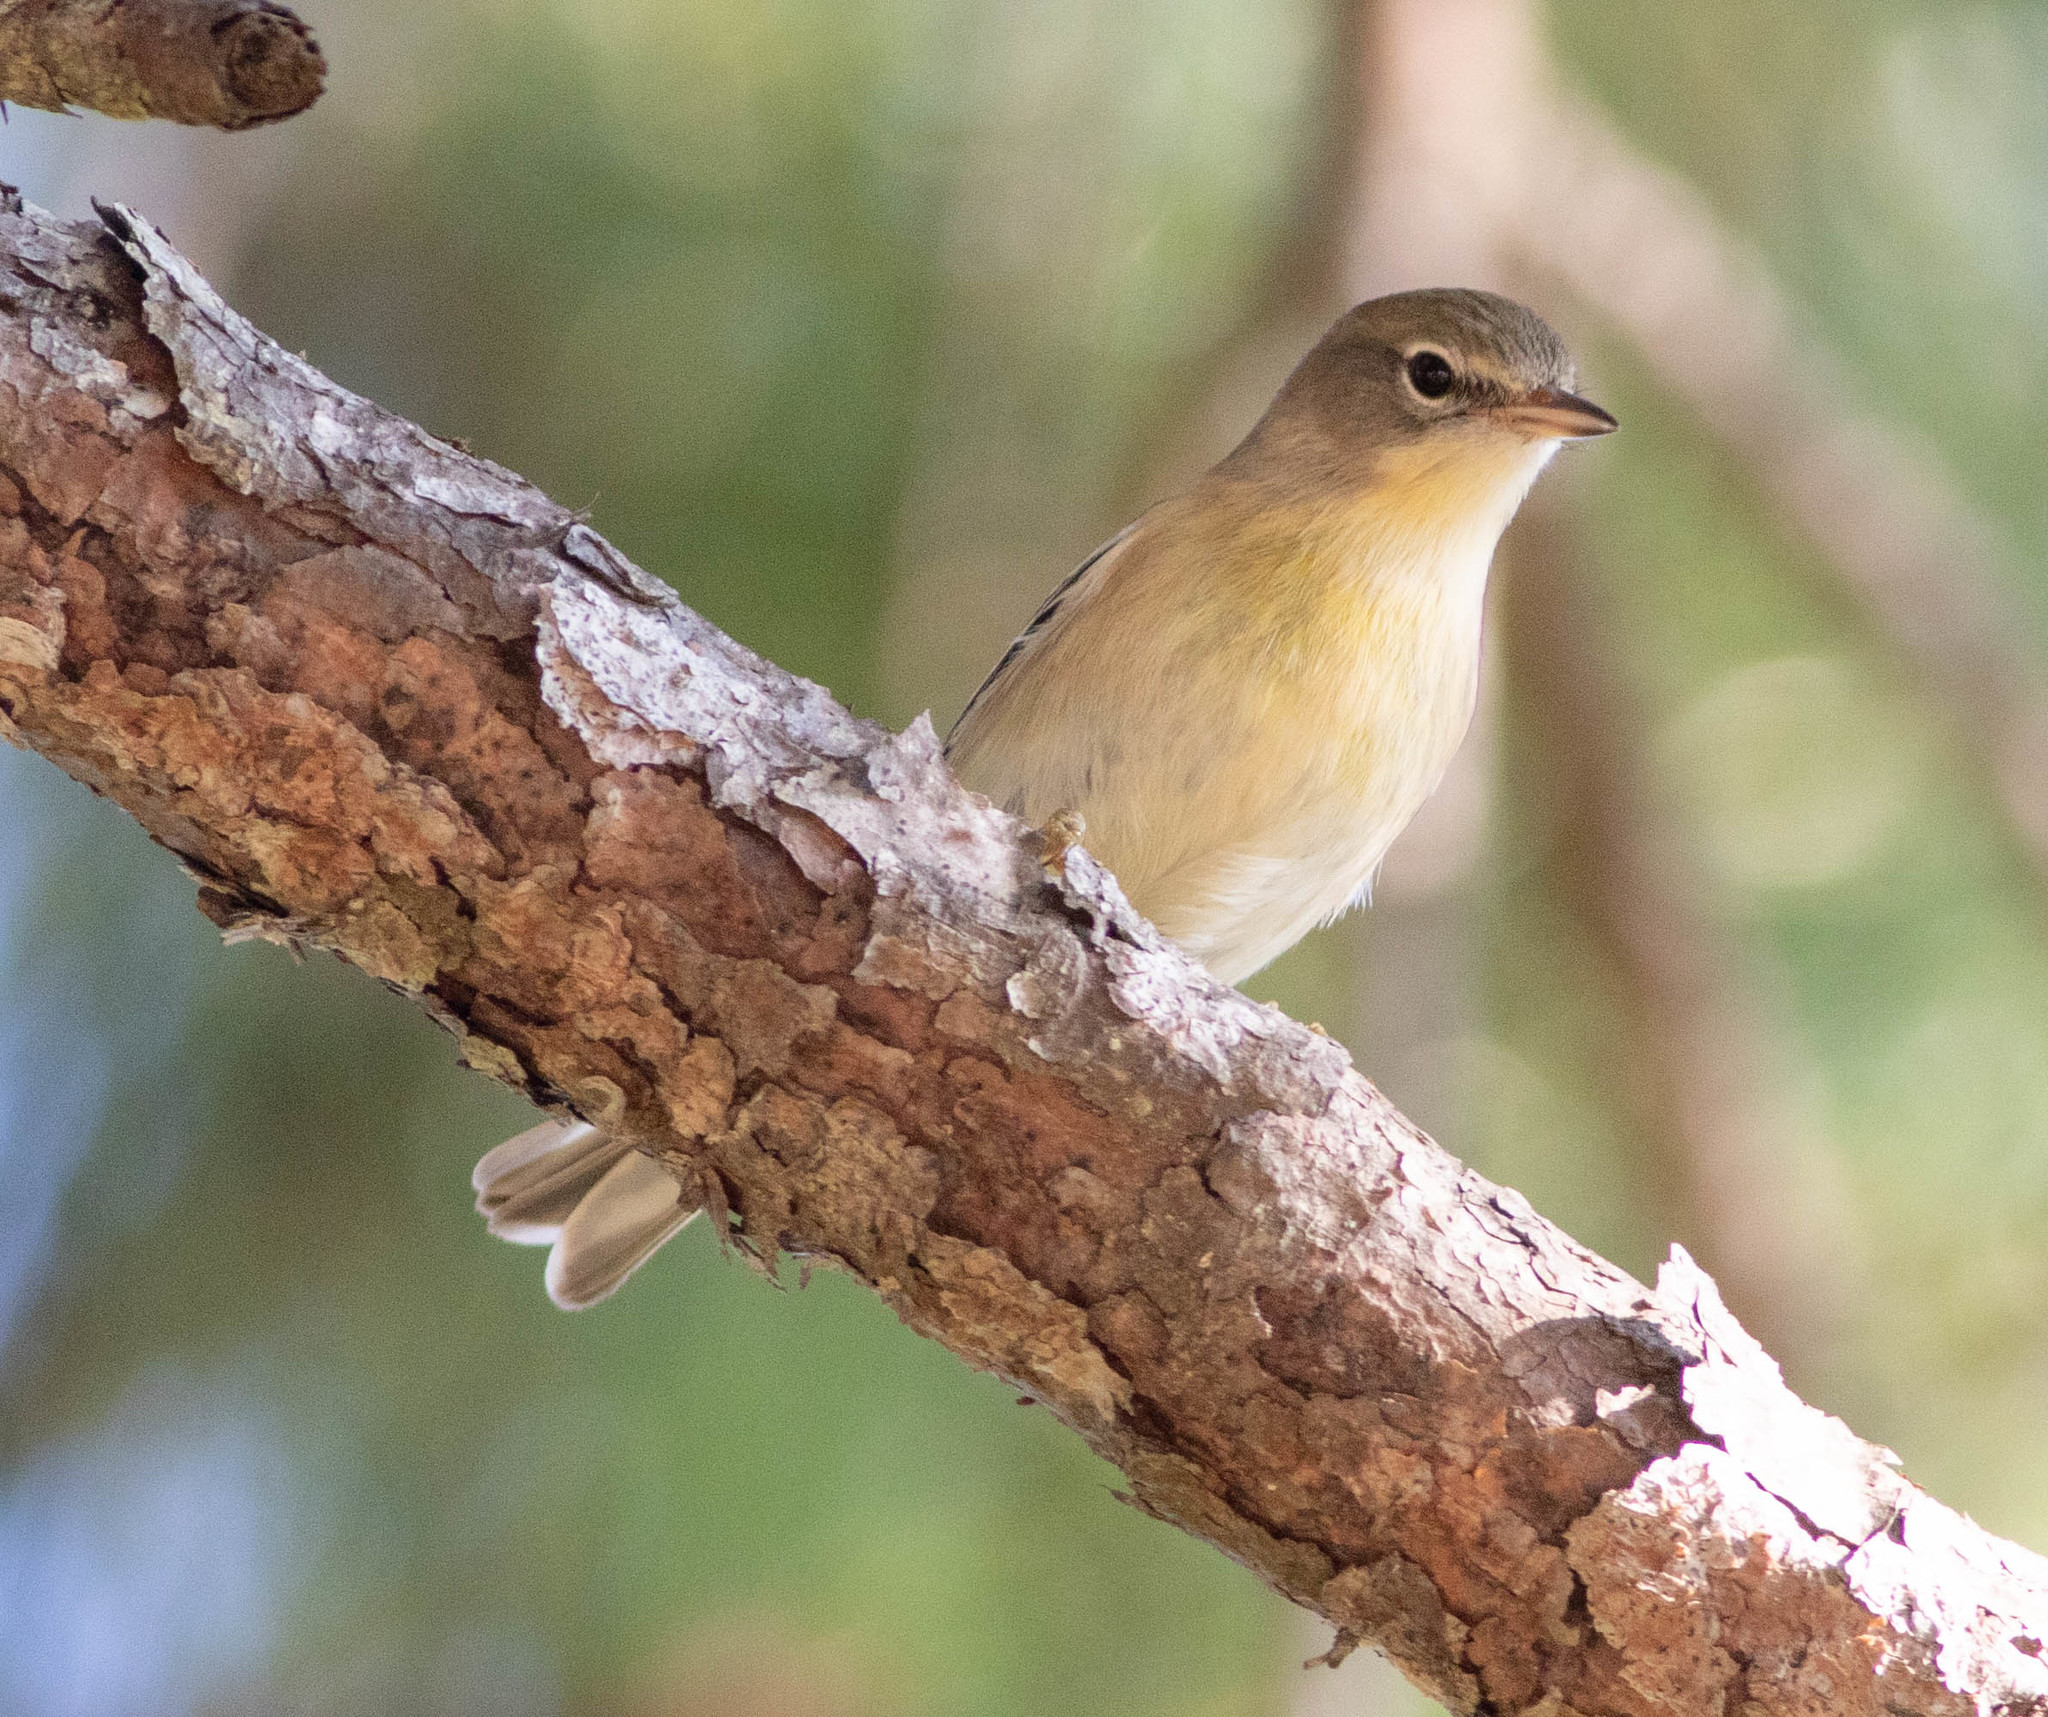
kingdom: Animalia
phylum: Chordata
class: Aves
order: Passeriformes
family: Parulidae
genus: Setophaga
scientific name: Setophaga pinus
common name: Pine warbler
